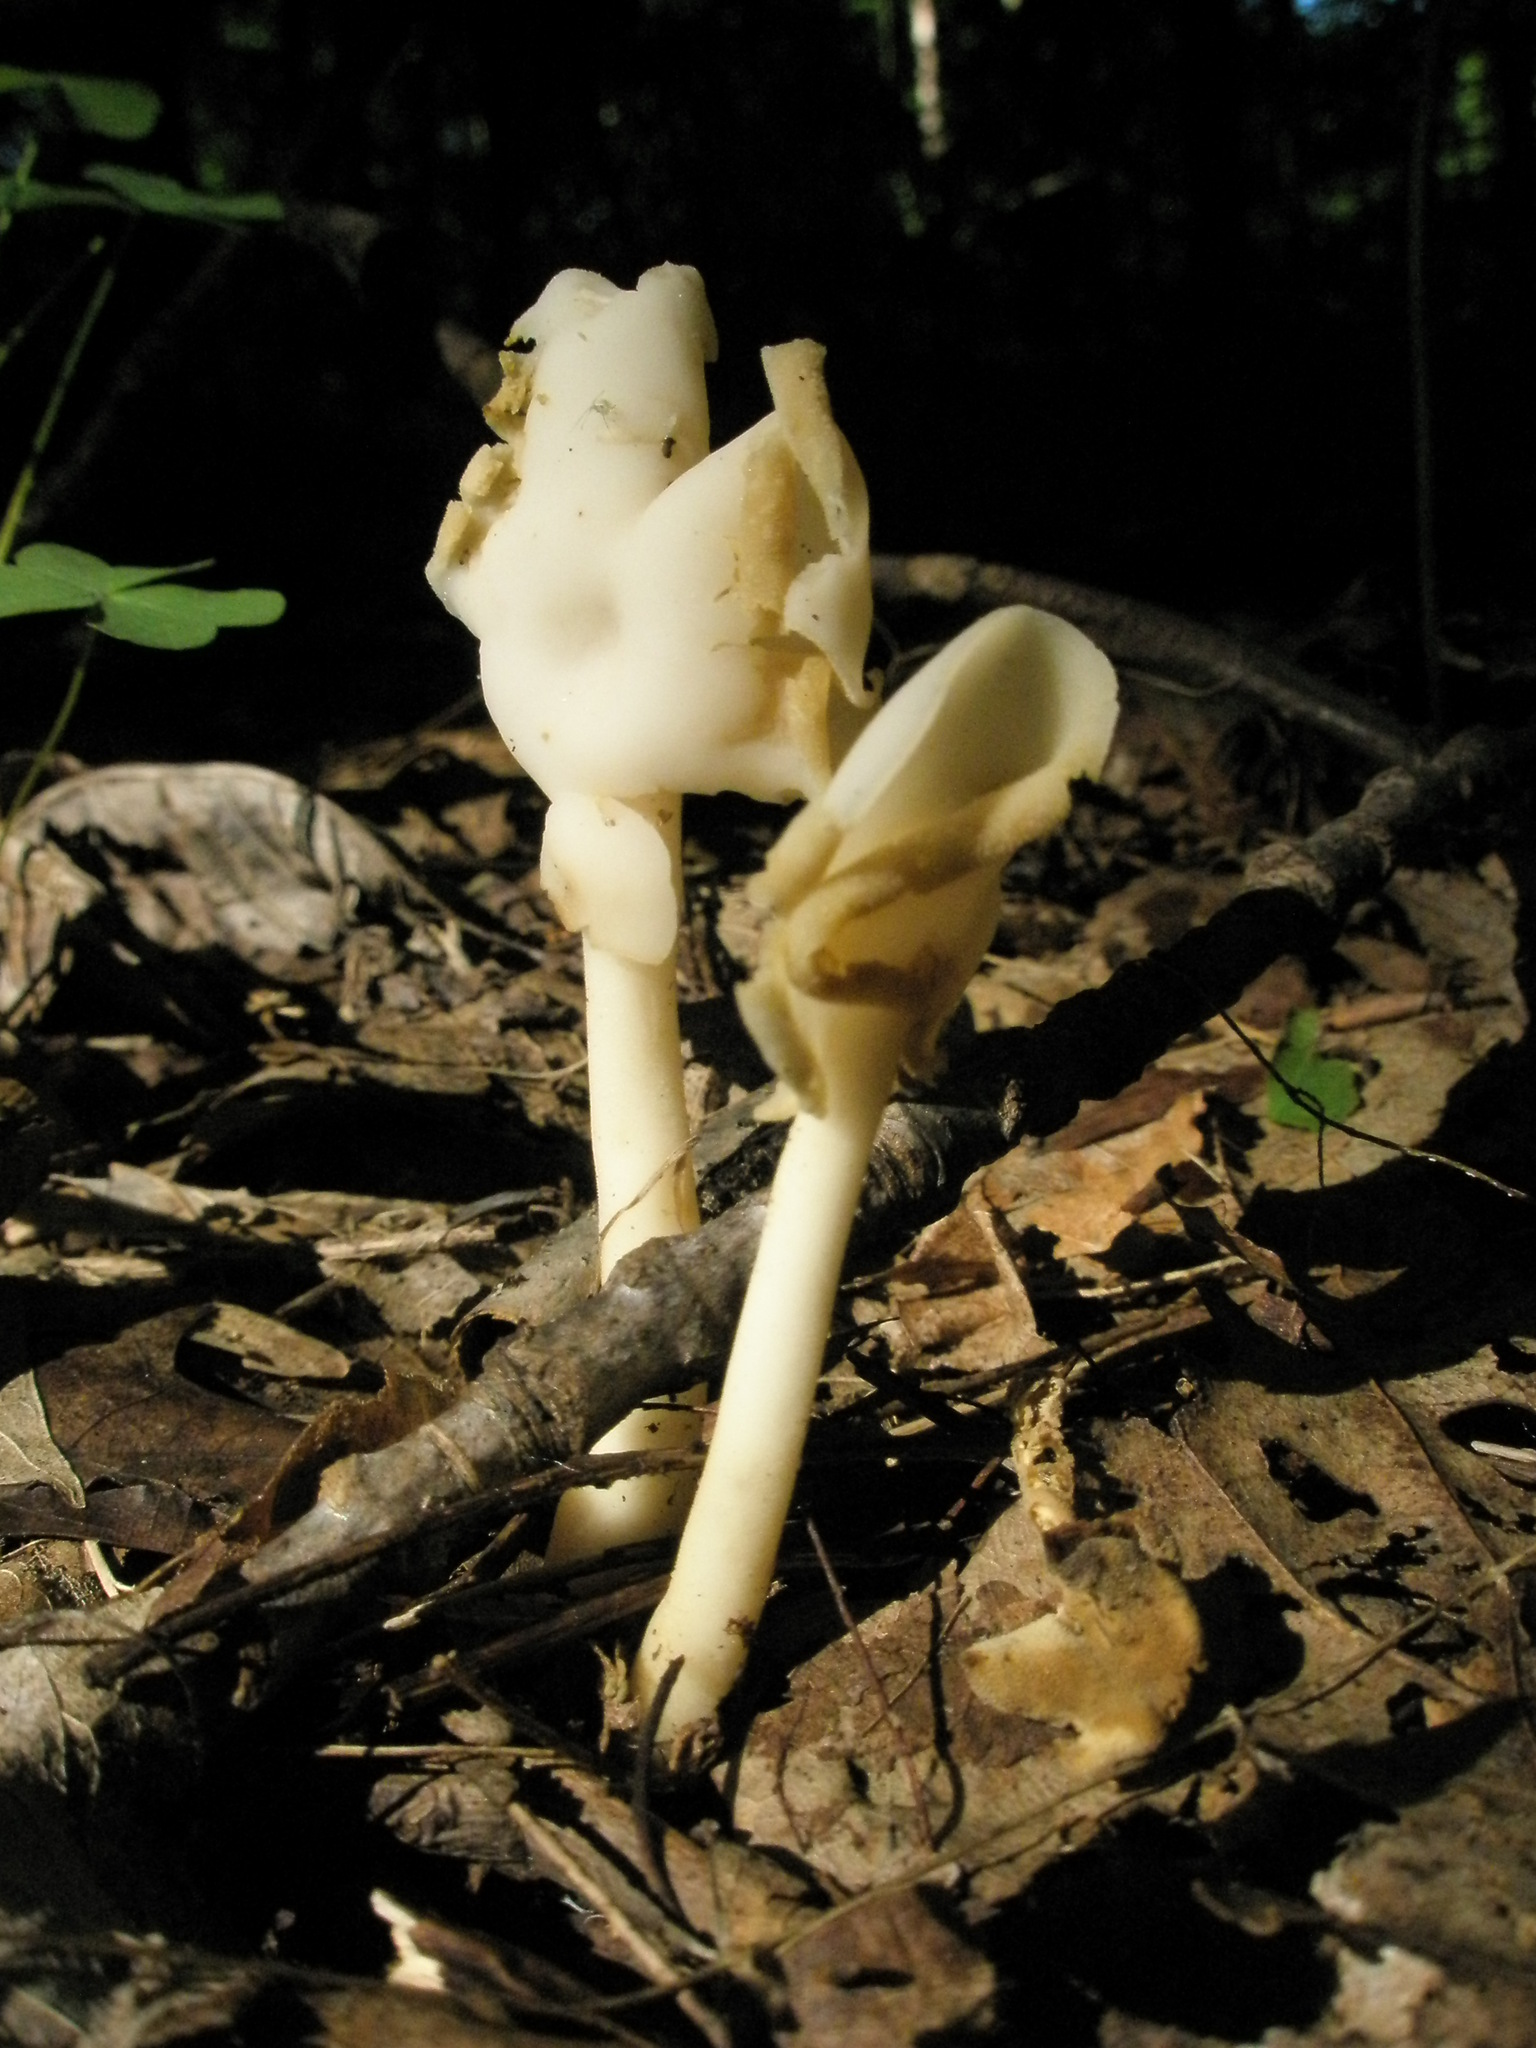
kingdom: Fungi
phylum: Ascomycota
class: Pezizomycetes
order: Pezizales
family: Helvellaceae
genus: Helvella
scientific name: Helvella elastica
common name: Elastic saddle
